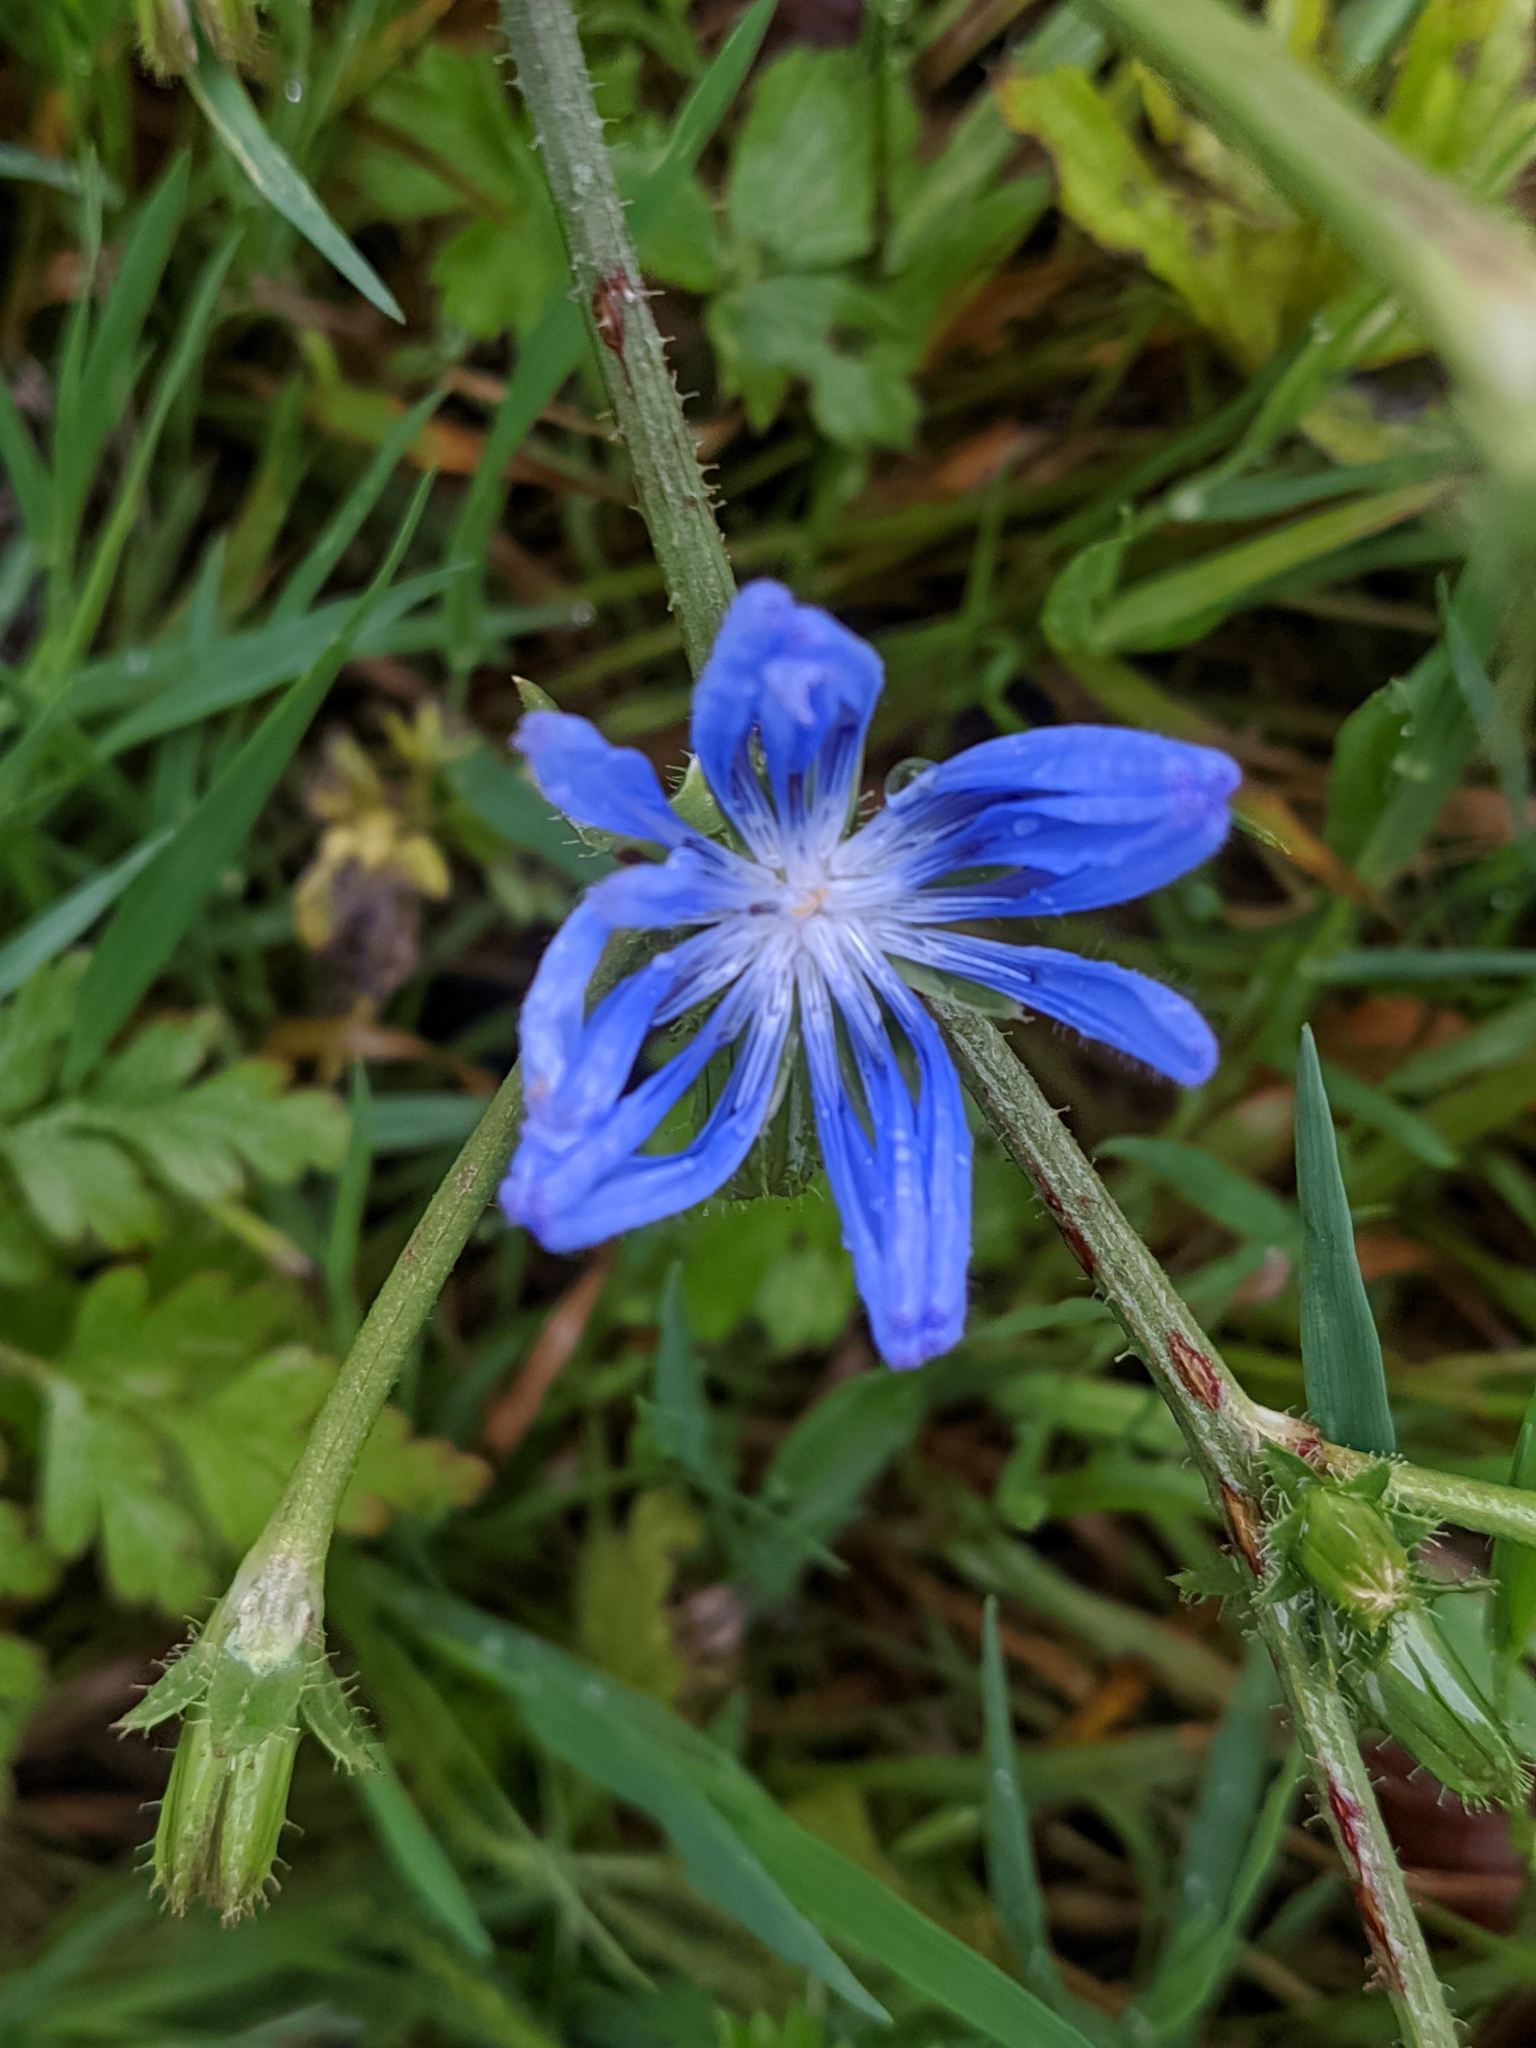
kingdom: Plantae
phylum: Tracheophyta
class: Magnoliopsida
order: Asterales
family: Asteraceae
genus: Cichorium
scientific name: Cichorium intybus
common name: Chicory
